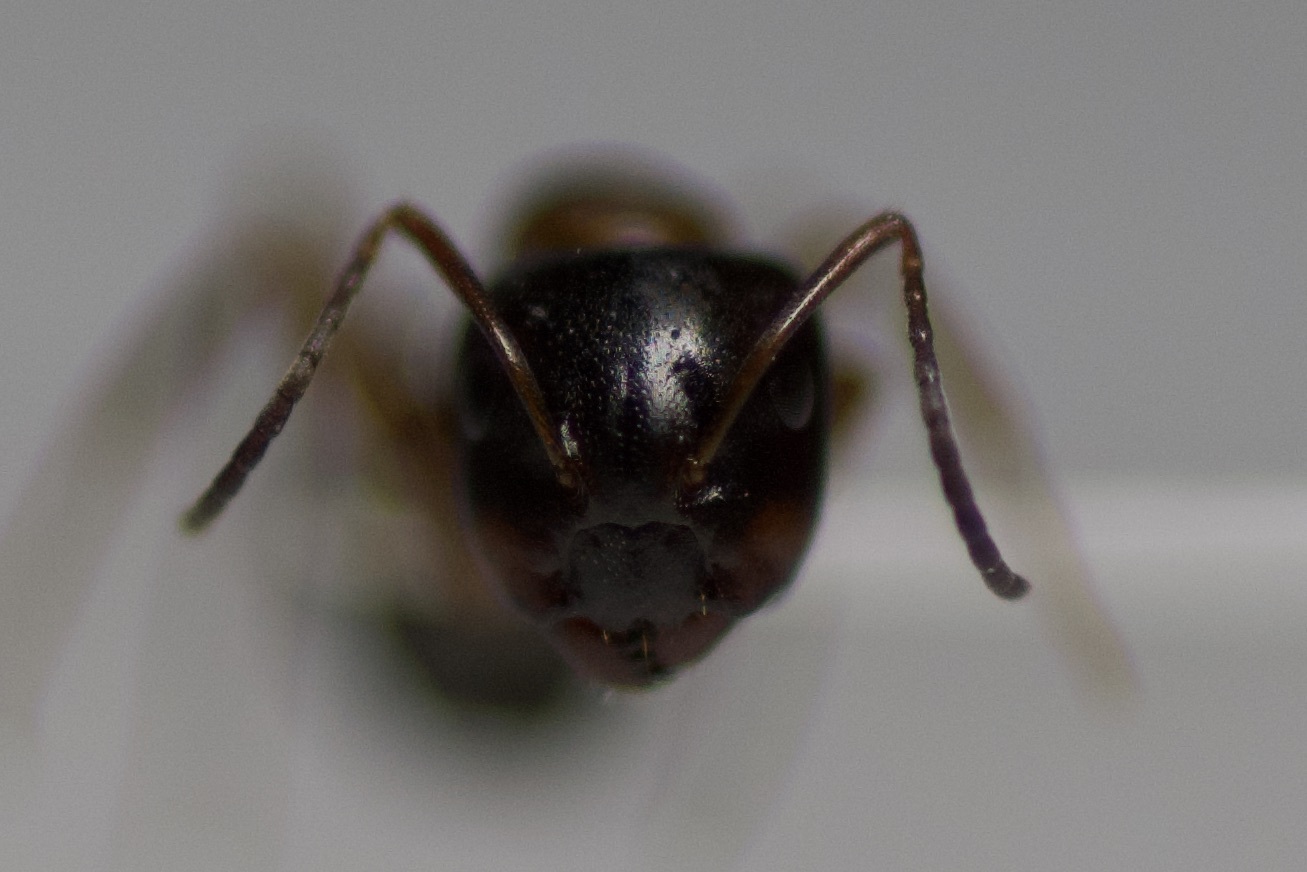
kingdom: Animalia
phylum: Arthropoda
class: Insecta
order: Hymenoptera
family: Formicidae
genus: Camponotus
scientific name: Camponotus nearcticus
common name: Smaller carpenter ant
